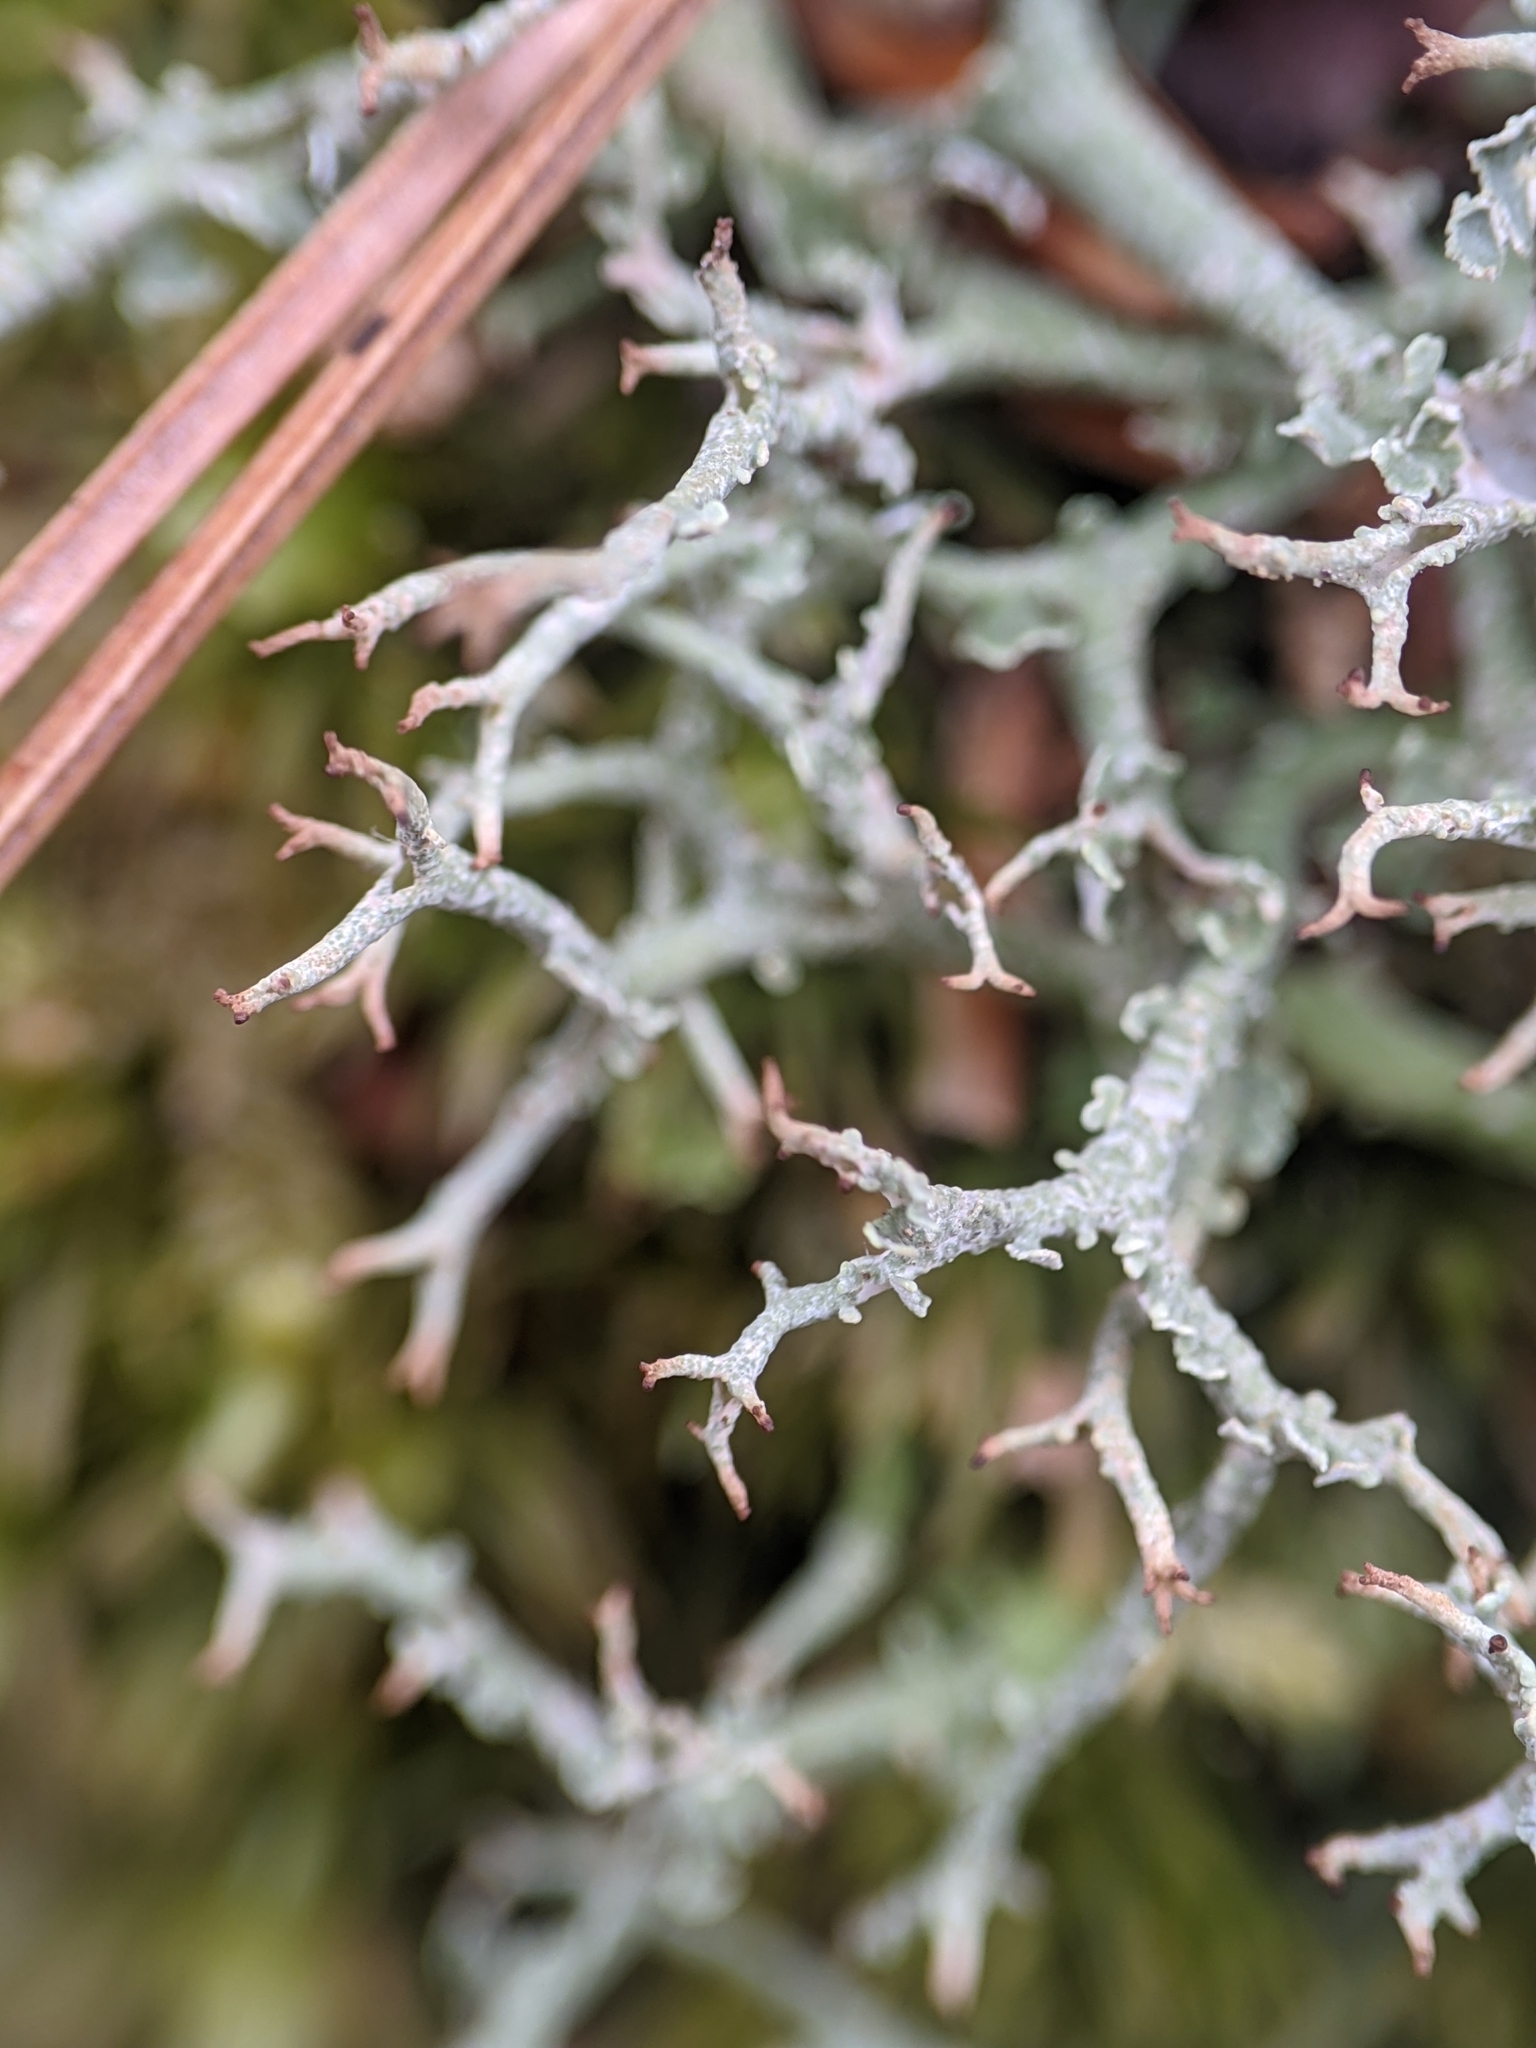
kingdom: Fungi
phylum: Ascomycota
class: Lecanoromycetes
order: Lecanorales
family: Cladoniaceae
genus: Cladonia
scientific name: Cladonia furcata
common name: Many-forked cladonia
